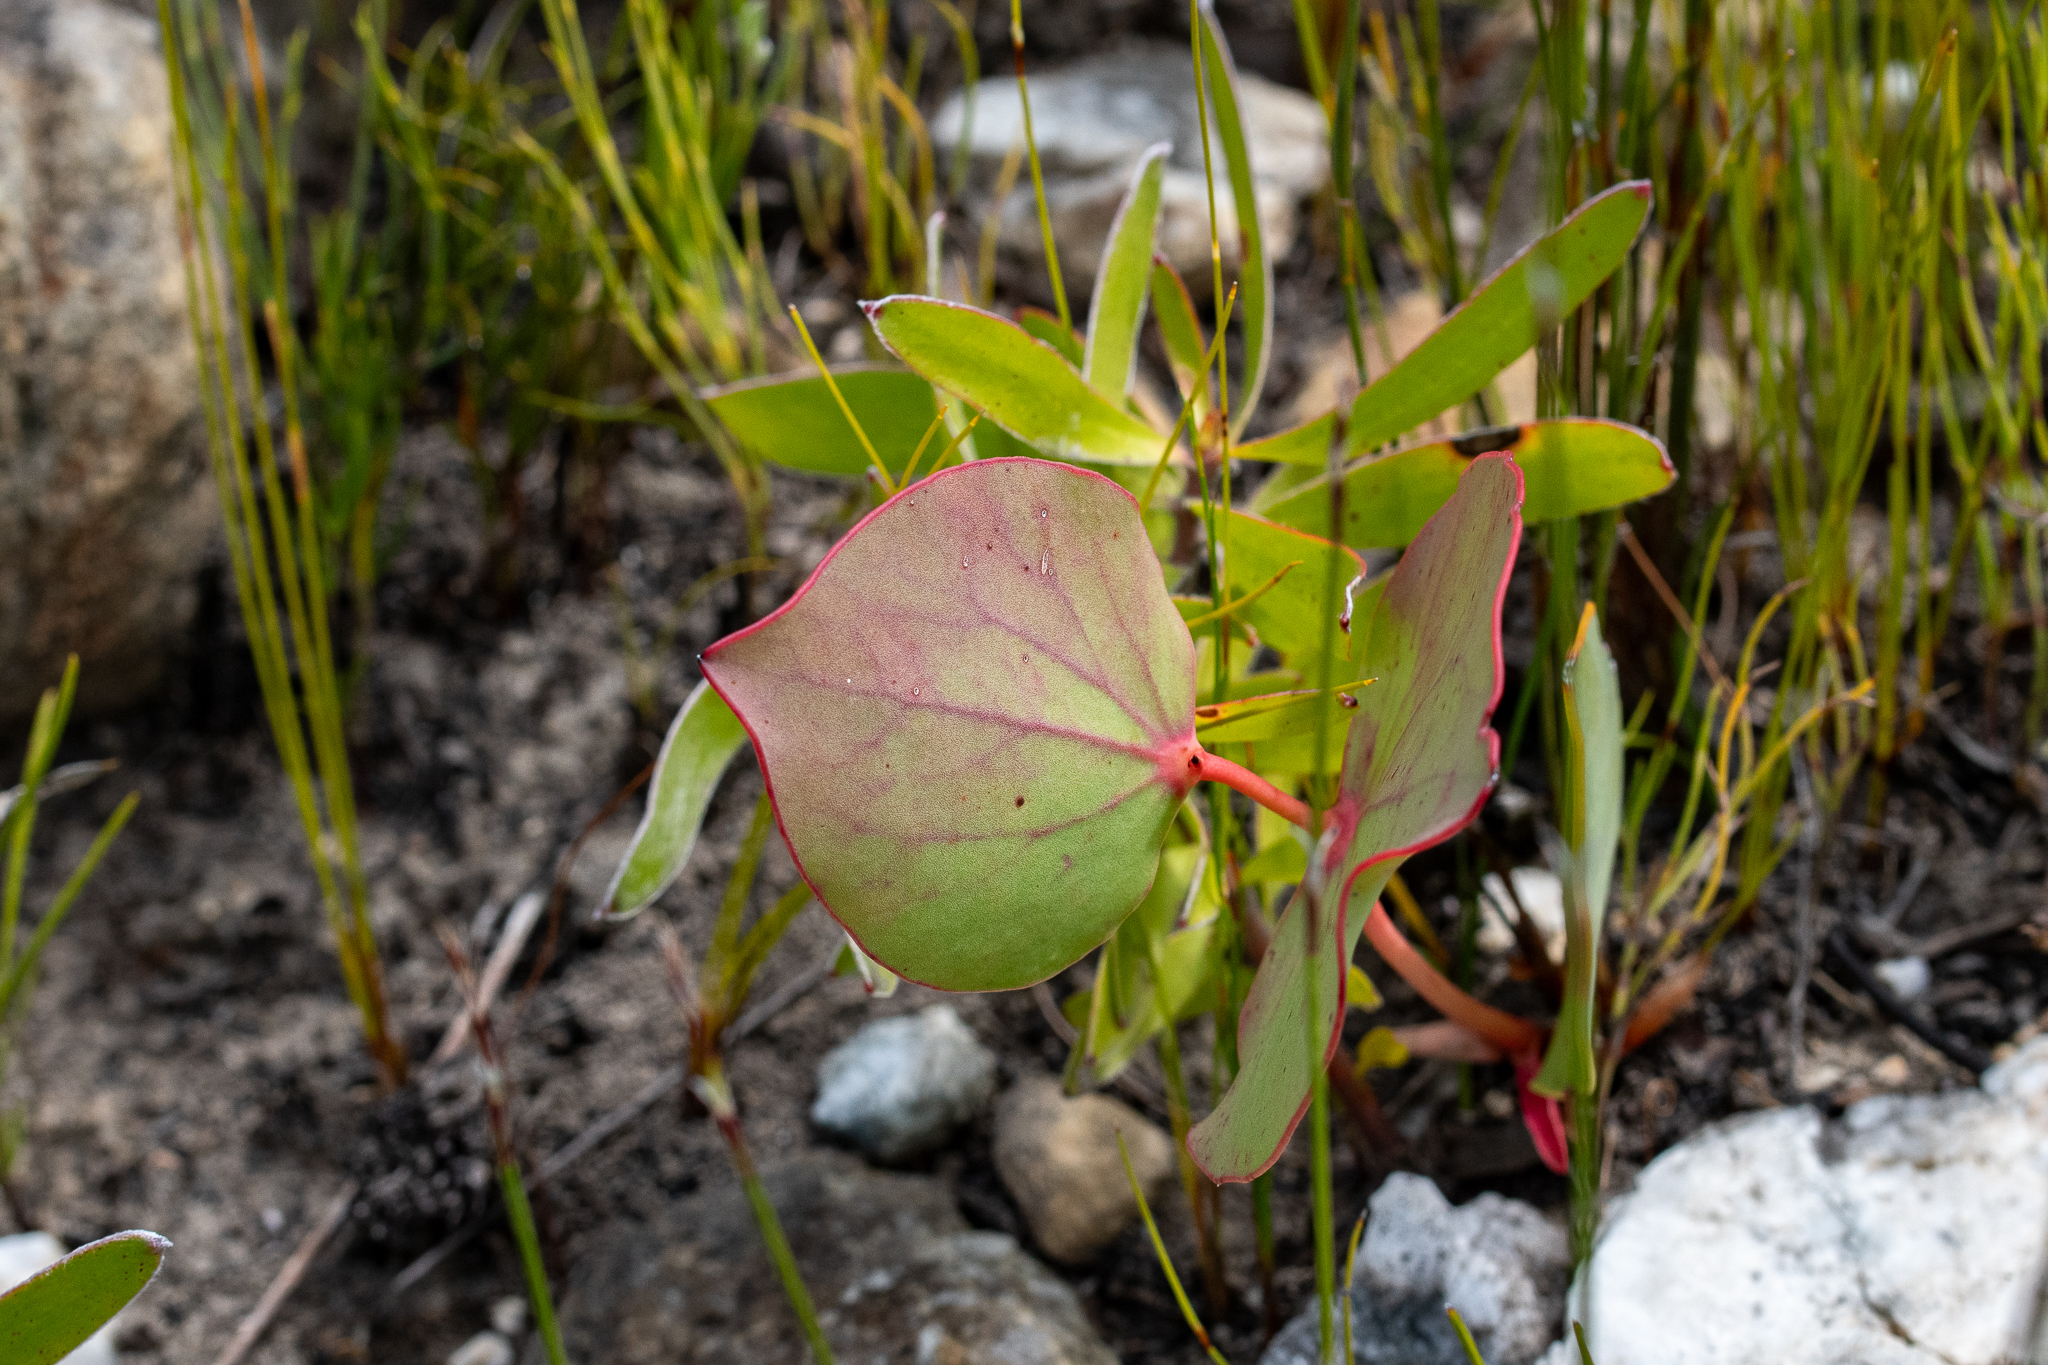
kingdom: Plantae
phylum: Tracheophyta
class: Magnoliopsida
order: Proteales
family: Proteaceae
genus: Protea
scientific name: Protea cordata
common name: Heart-leaf sugarbush
